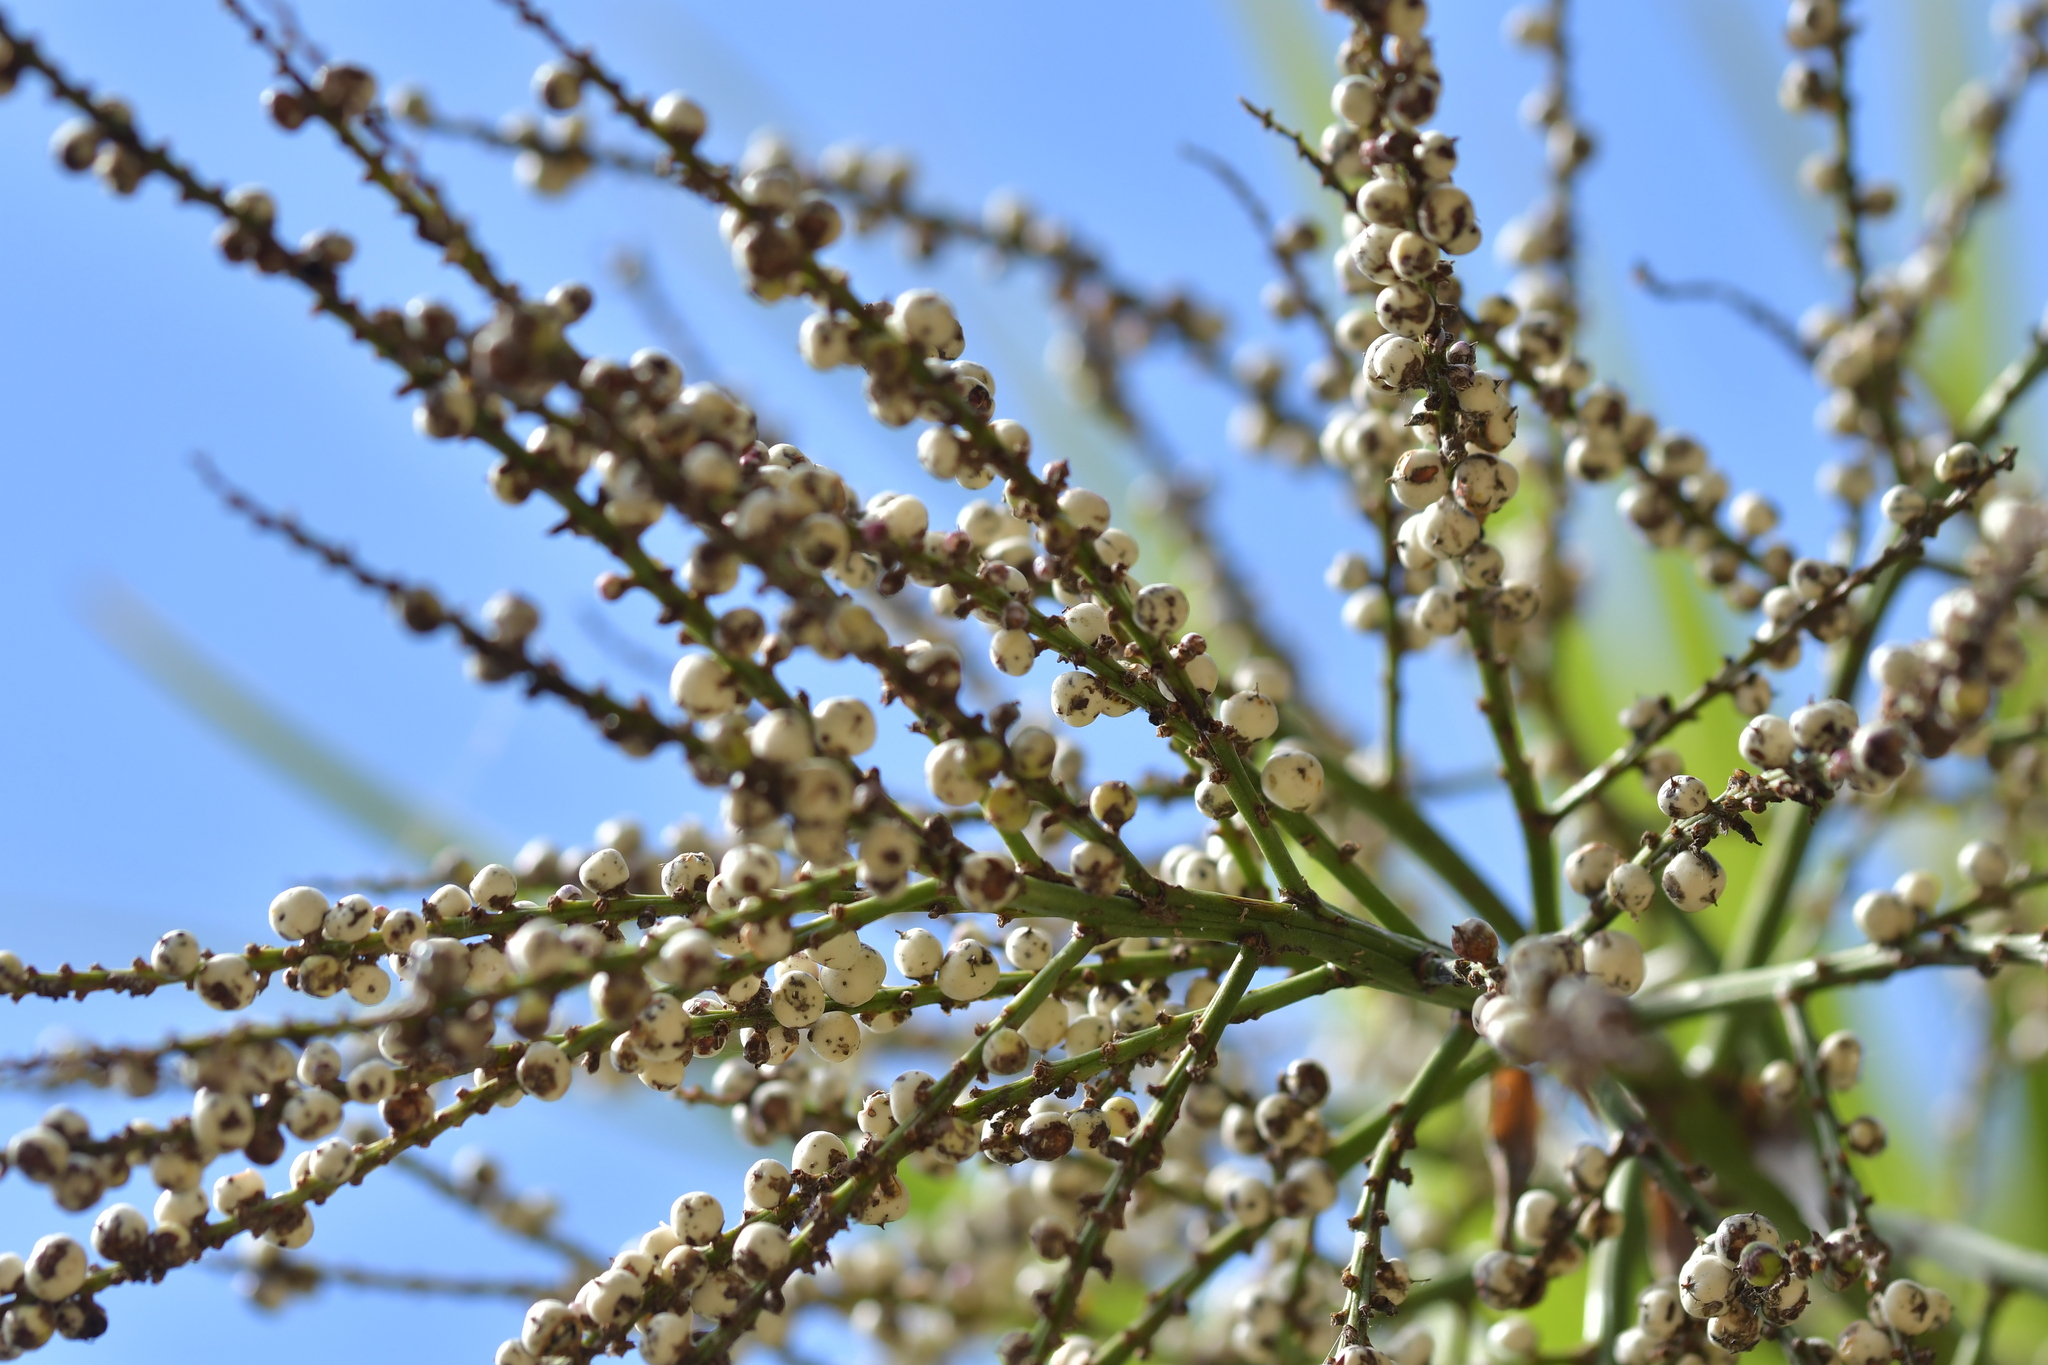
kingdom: Plantae
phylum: Tracheophyta
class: Liliopsida
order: Asparagales
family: Asparagaceae
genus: Cordyline
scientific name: Cordyline australis
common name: Cabbage-palm
